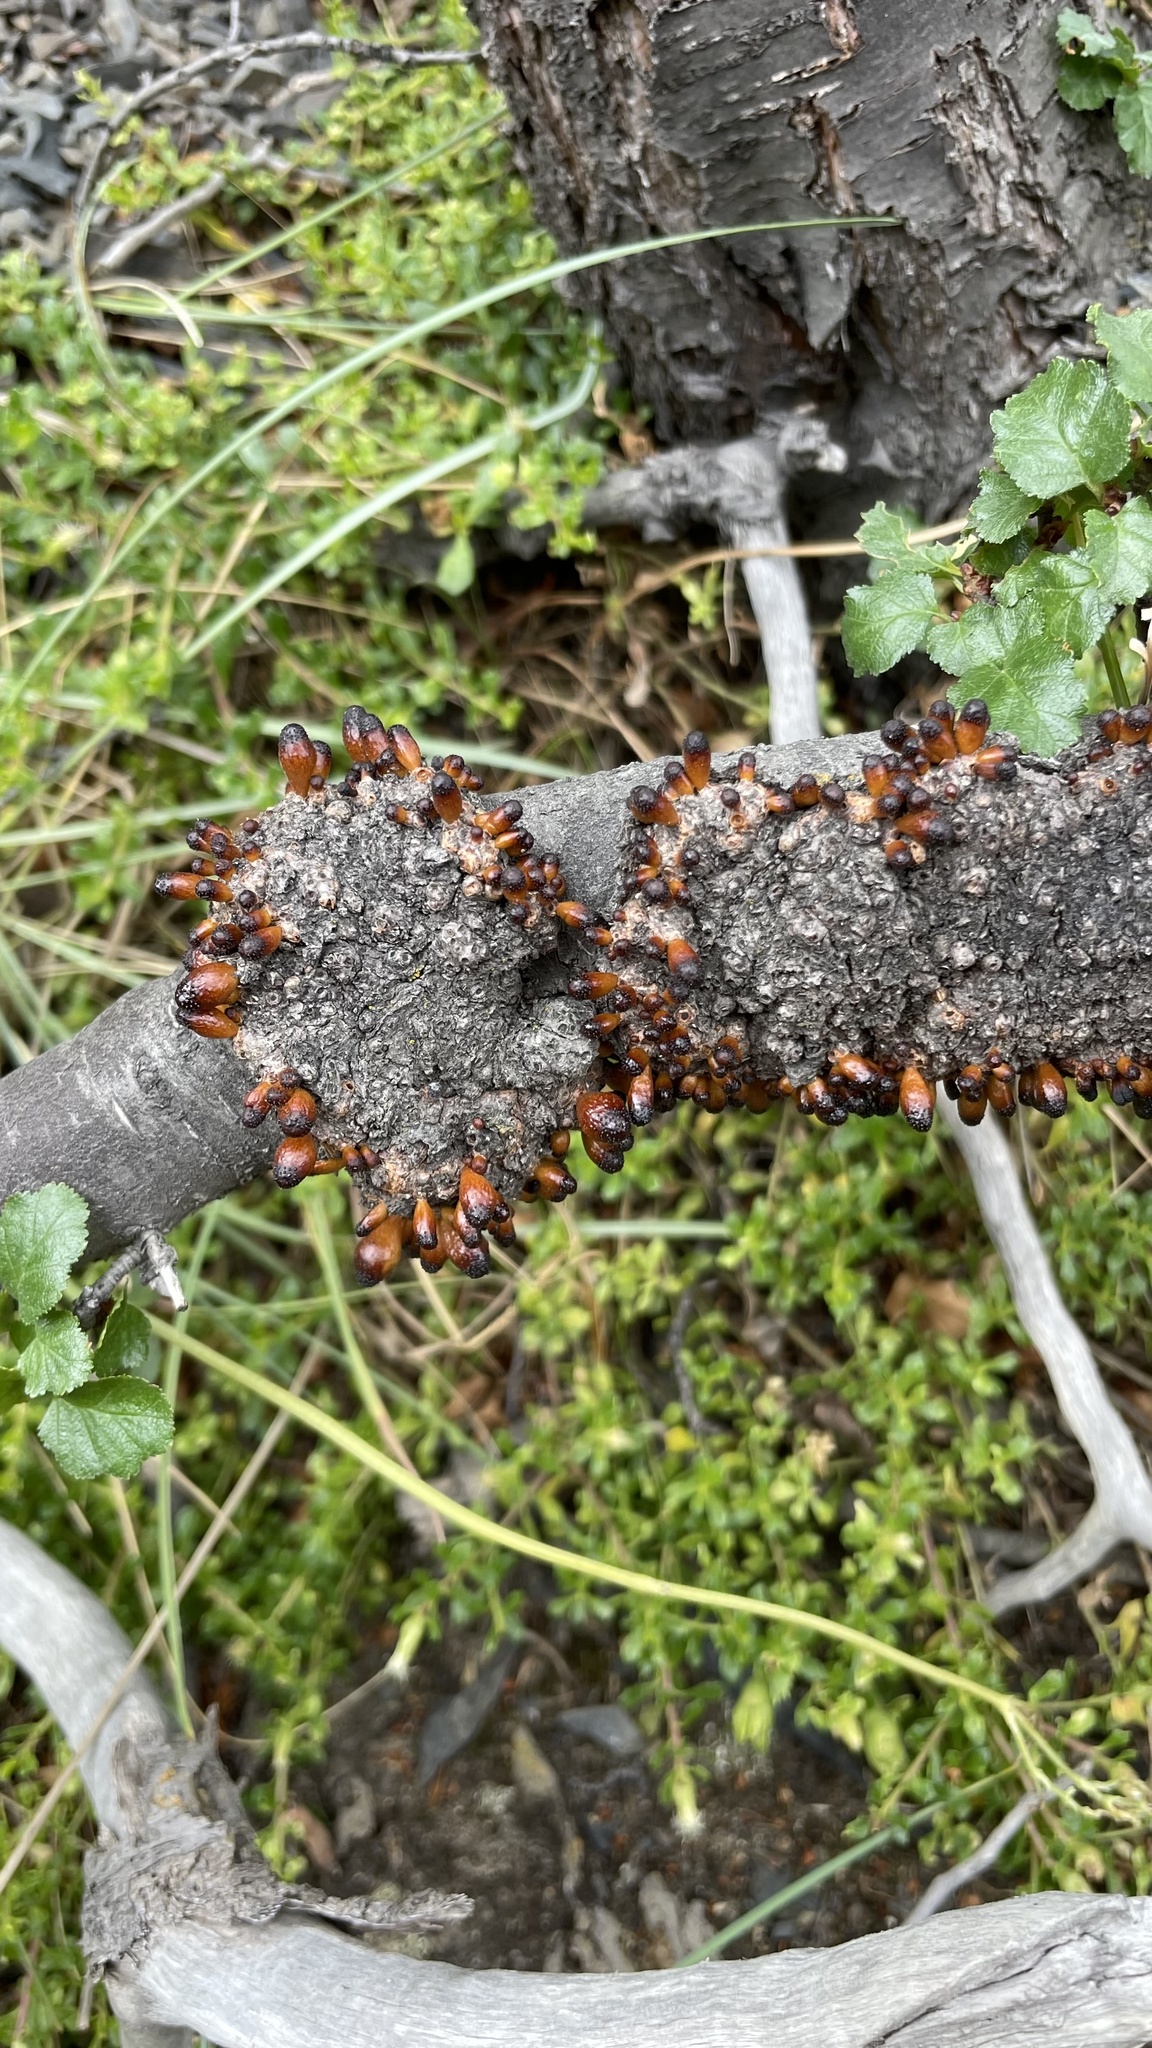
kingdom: Fungi
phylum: Ascomycota
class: Leotiomycetes
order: Cyttariales
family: Cyttariaceae
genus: Cyttaria
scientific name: Cyttaria hookeri
